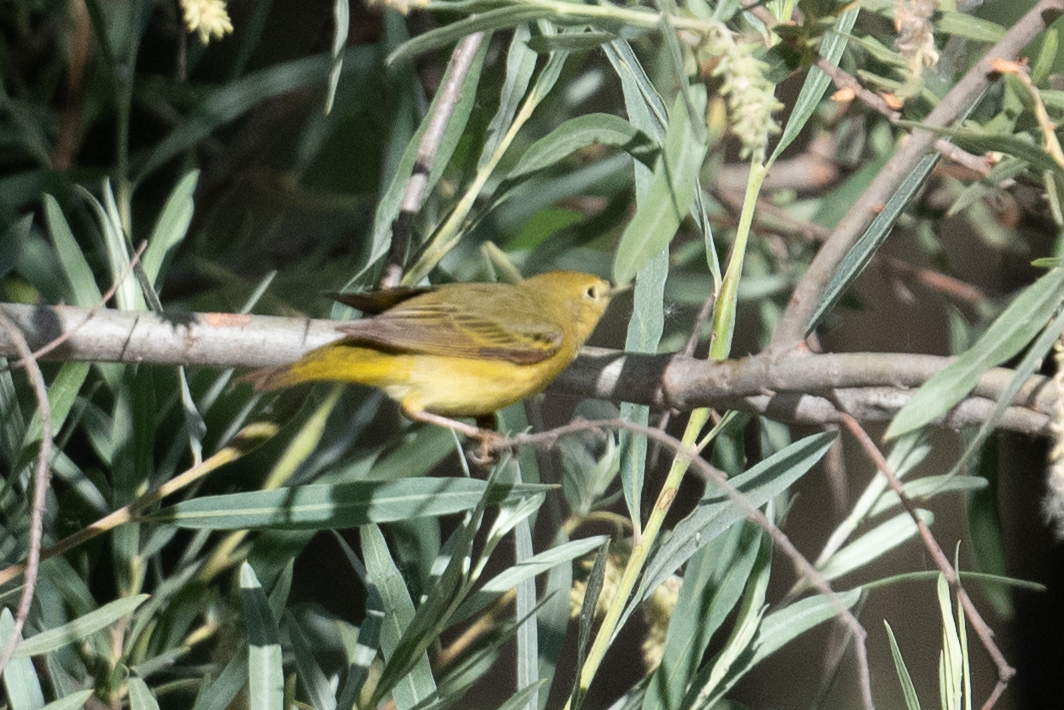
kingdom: Animalia
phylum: Chordata
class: Aves
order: Passeriformes
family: Parulidae
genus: Setophaga
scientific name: Setophaga petechia
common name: Yellow warbler
